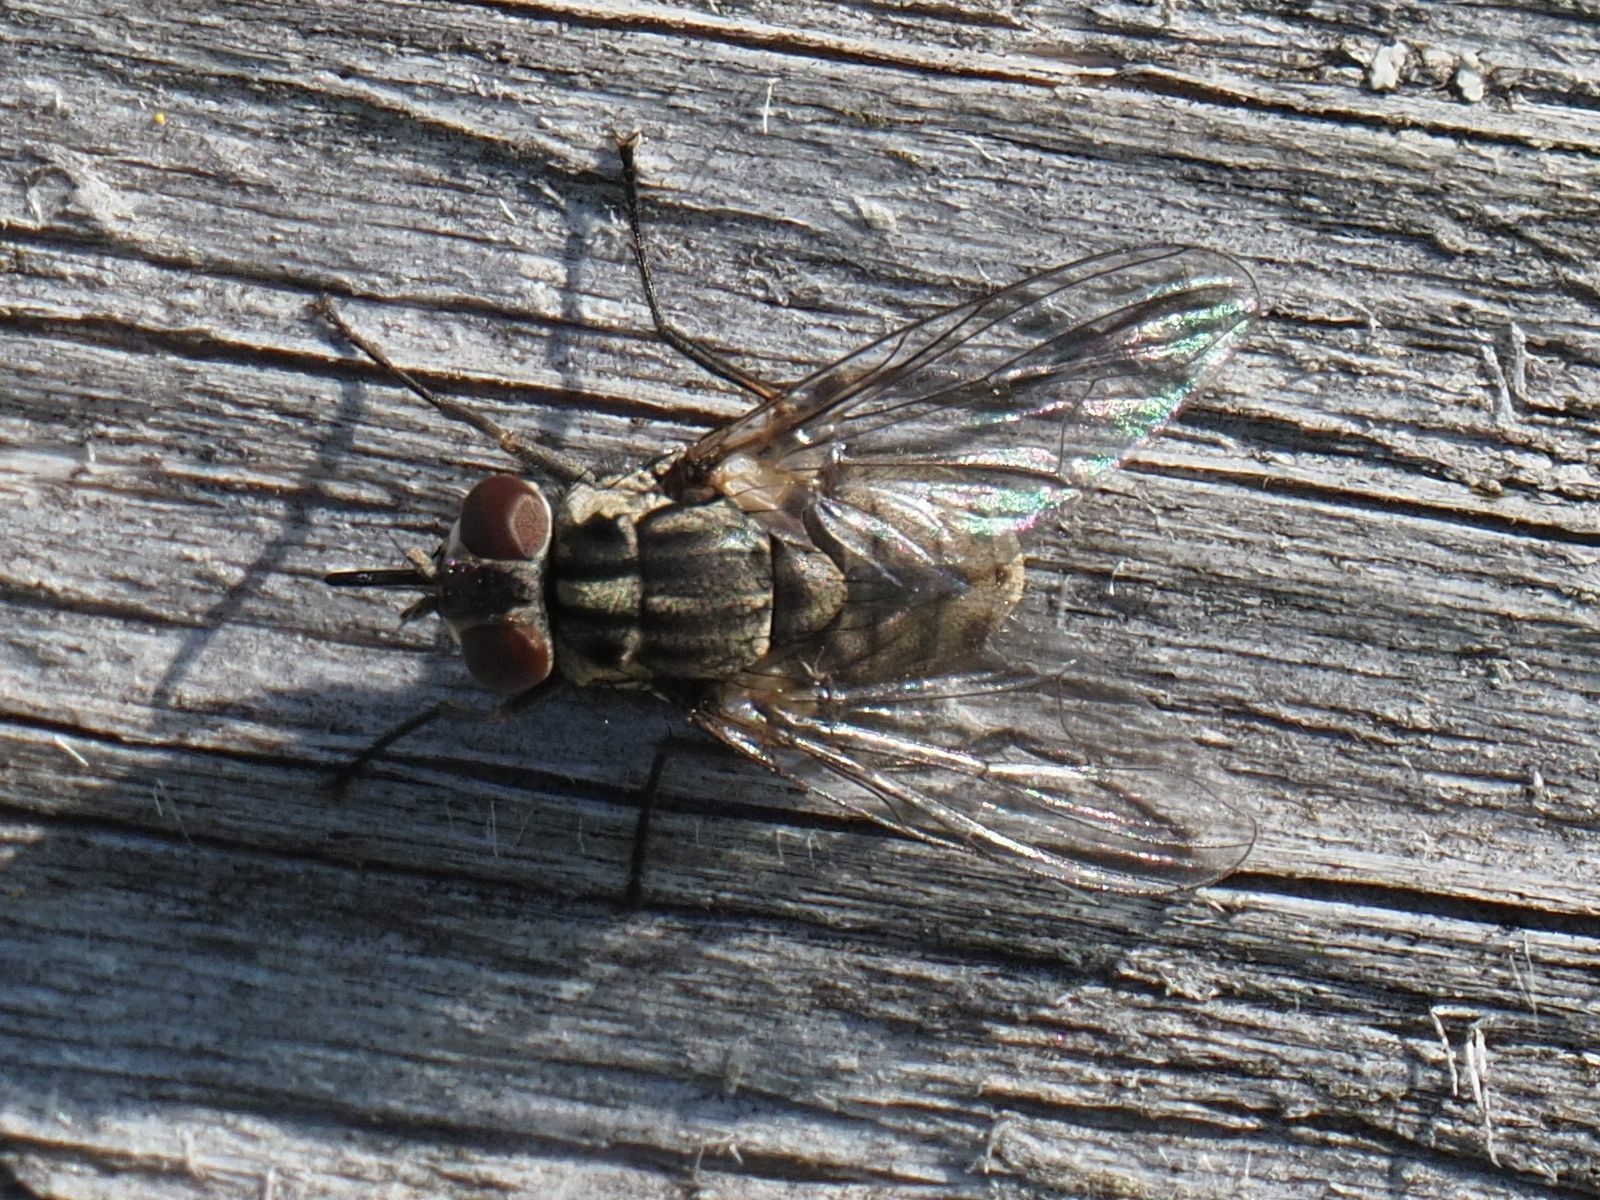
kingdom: Animalia
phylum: Arthropoda
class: Insecta
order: Diptera
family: Muscidae
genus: Stomoxys
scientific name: Stomoxys calcitrans
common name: Stable fly
